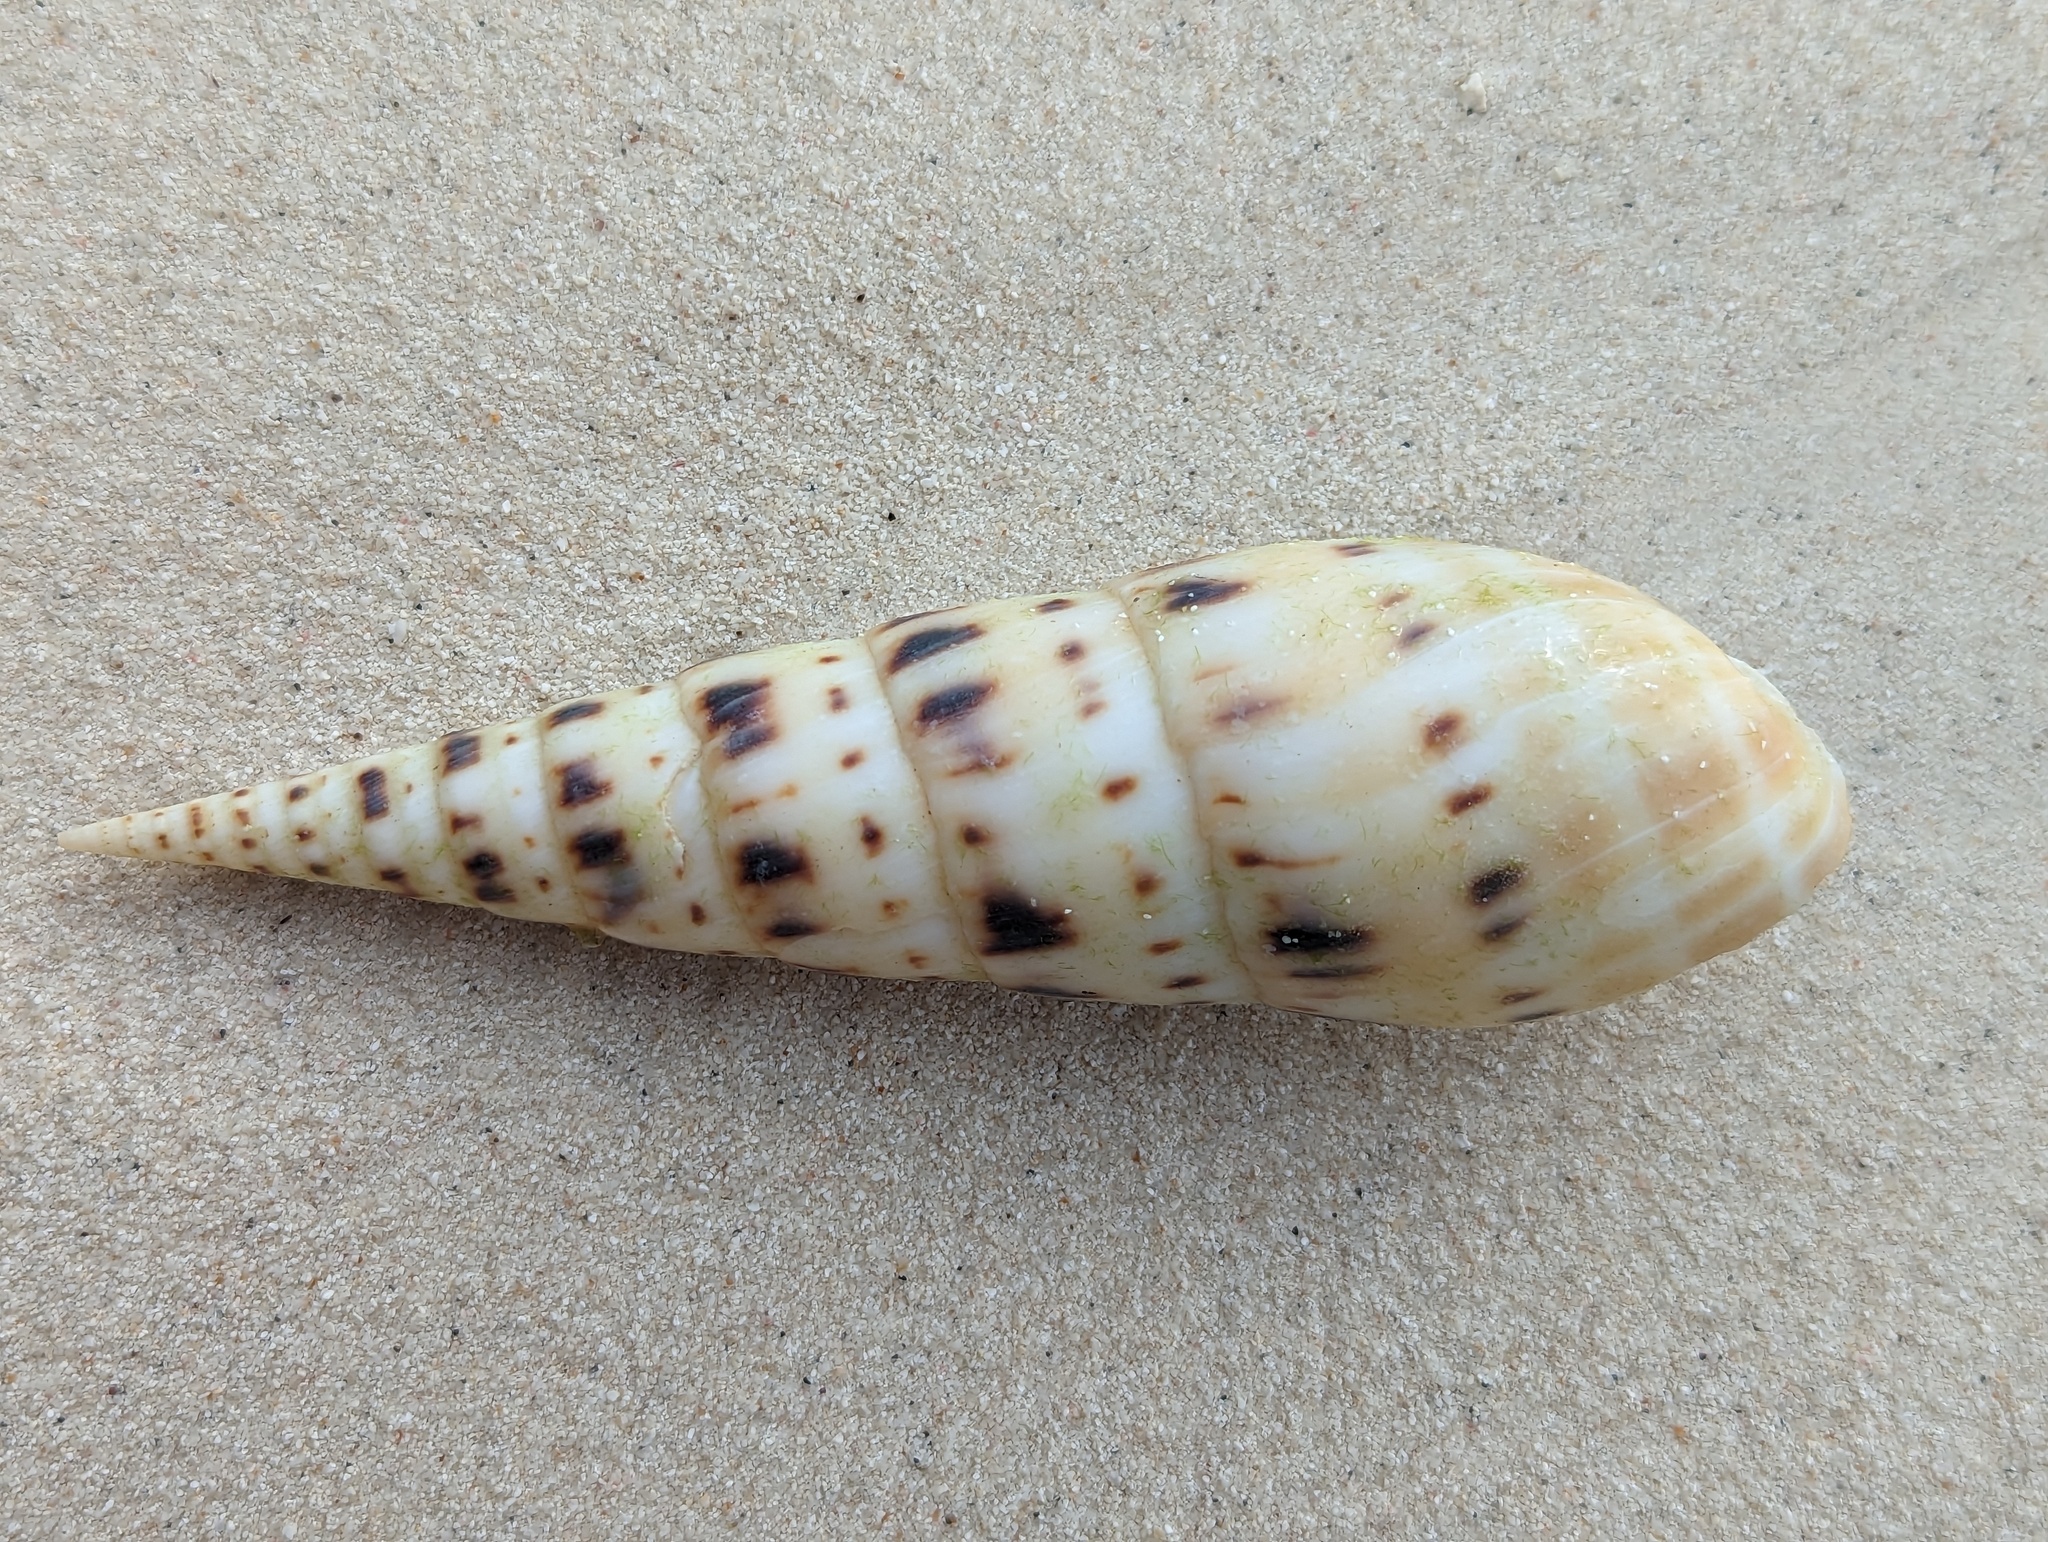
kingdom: Animalia
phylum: Mollusca
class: Gastropoda
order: Neogastropoda
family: Terebridae
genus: Oxymeris
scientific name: Oxymeris maculata
